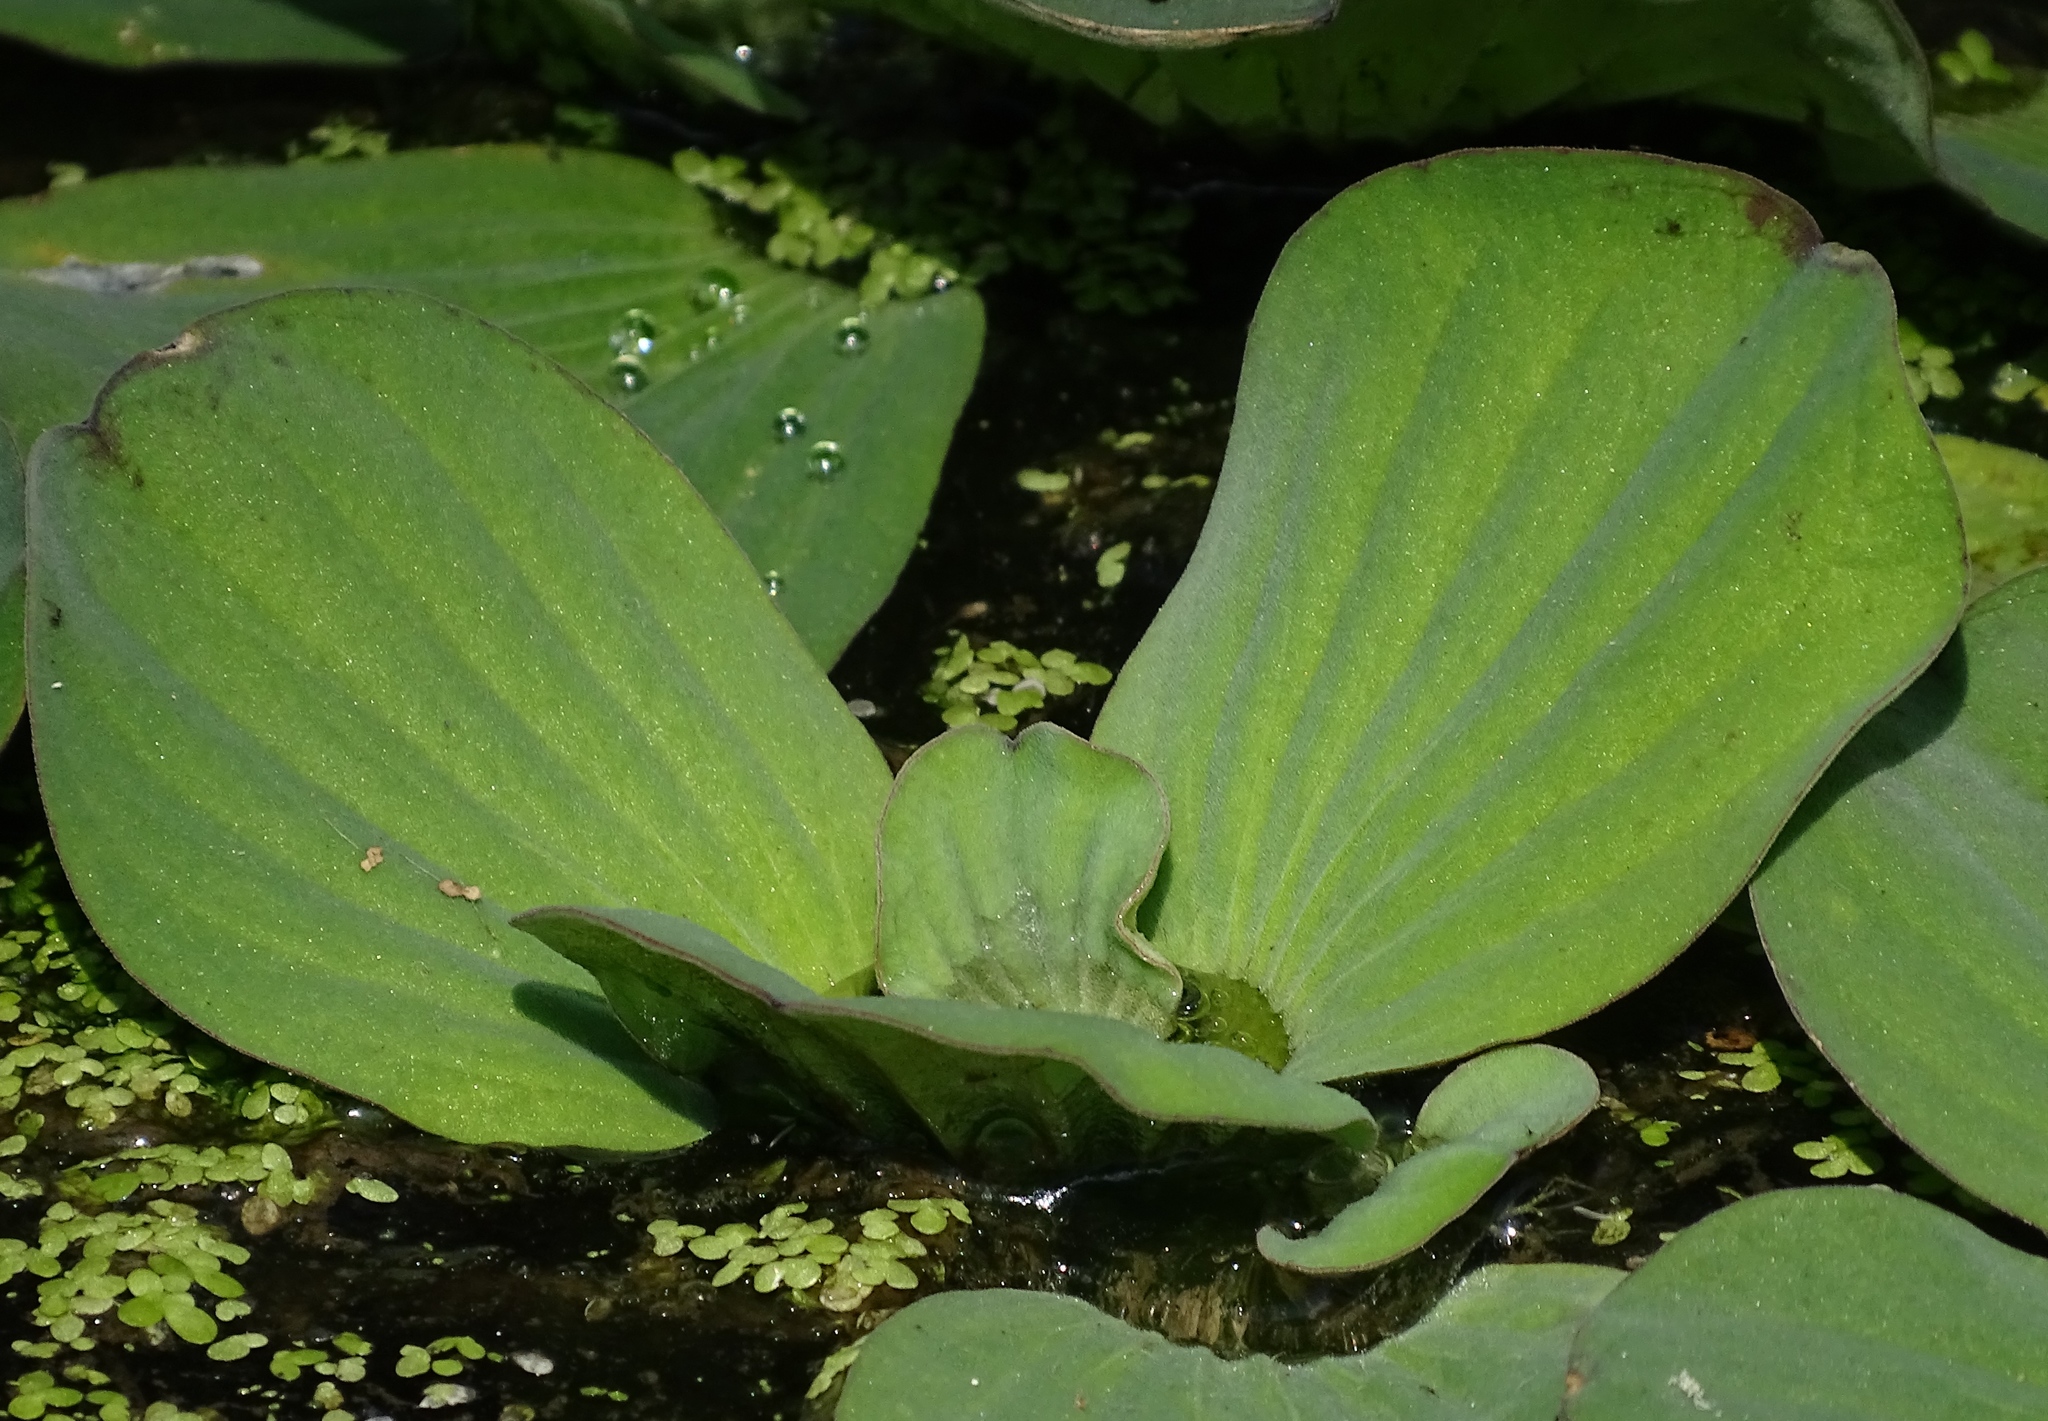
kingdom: Plantae
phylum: Tracheophyta
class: Liliopsida
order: Alismatales
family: Araceae
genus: Pistia
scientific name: Pistia stratiotes
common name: Water lettuce
